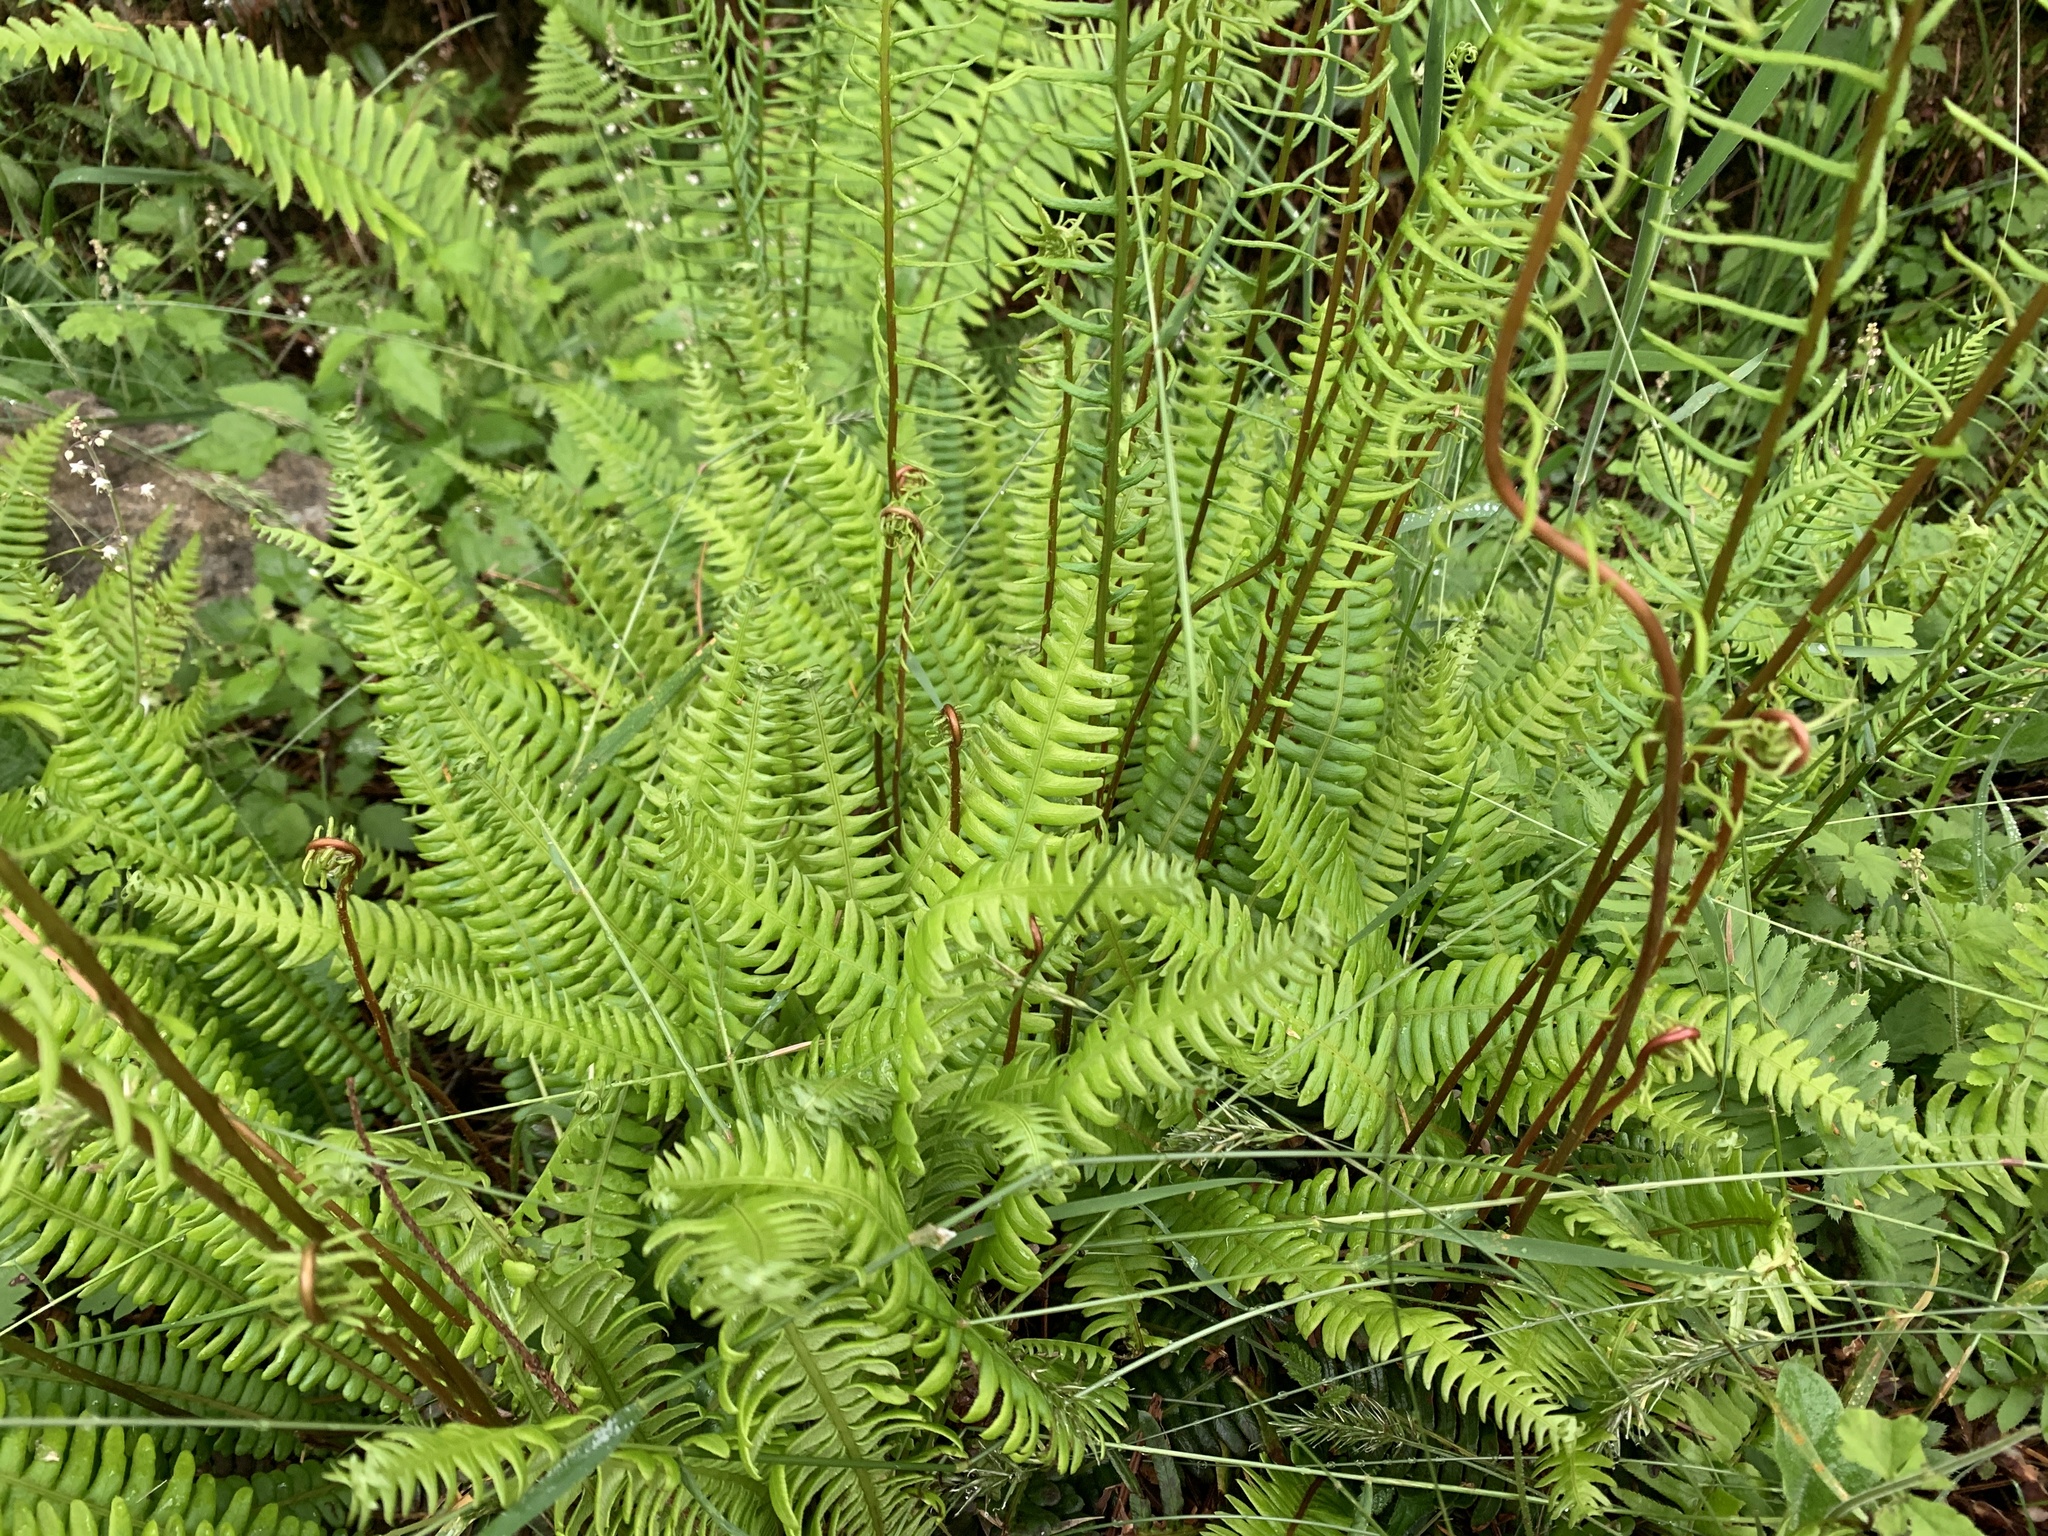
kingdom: Plantae
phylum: Tracheophyta
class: Polypodiopsida
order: Polypodiales
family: Blechnaceae
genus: Struthiopteris
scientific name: Struthiopteris spicant
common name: Deer fern
